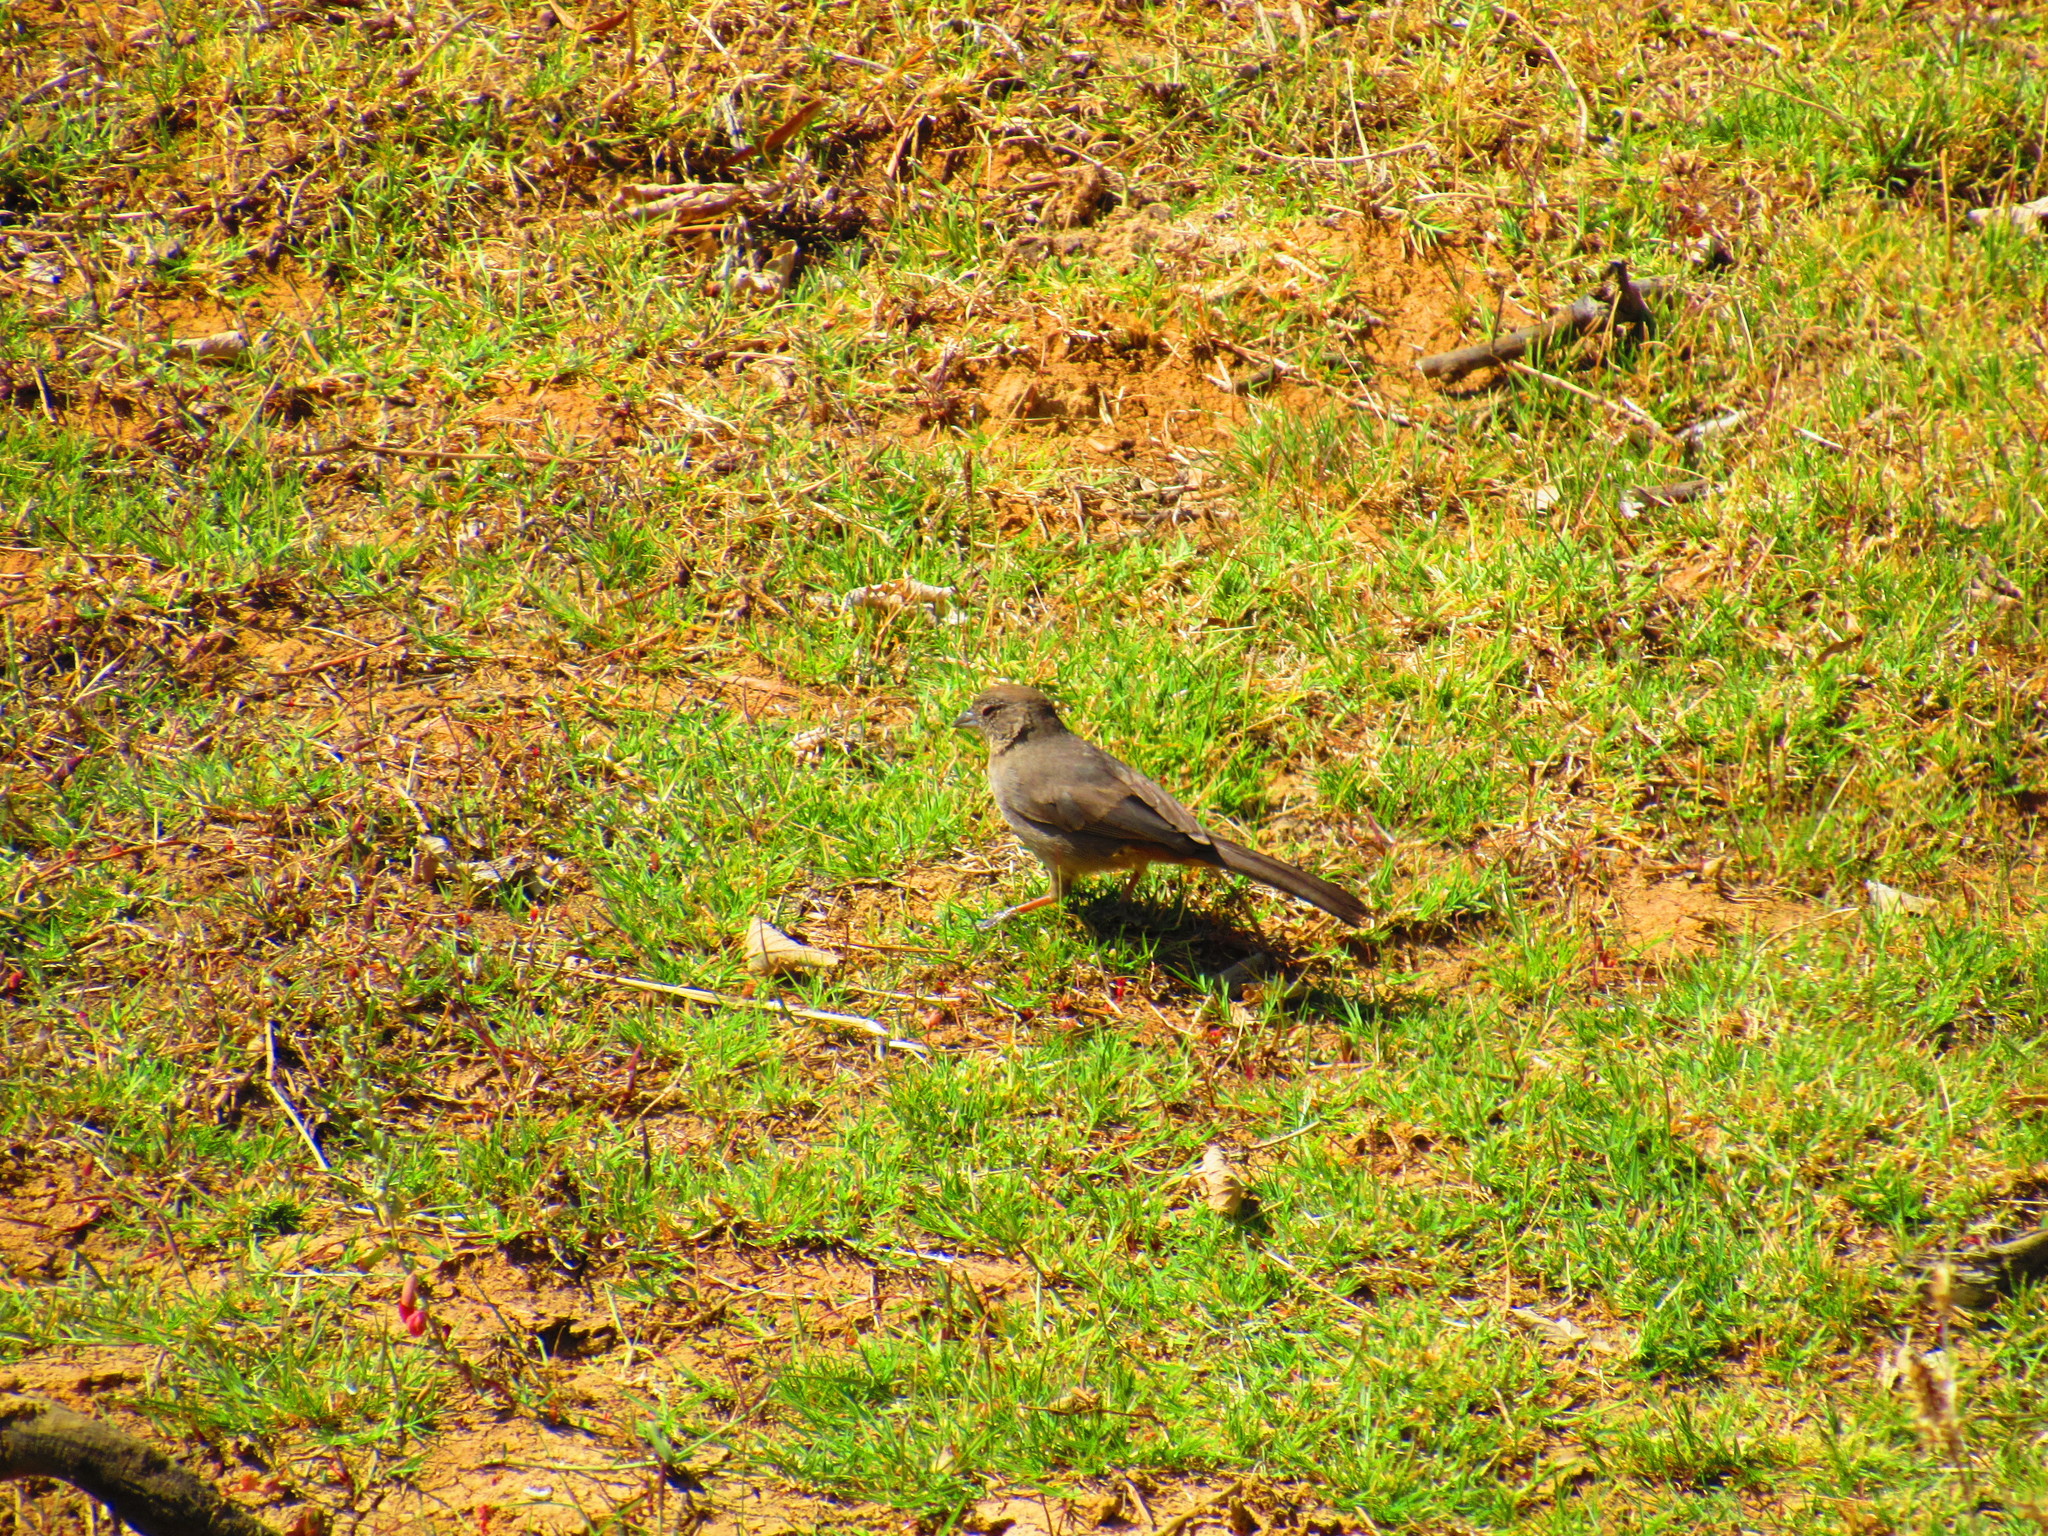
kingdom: Animalia
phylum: Chordata
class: Aves
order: Passeriformes
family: Passerellidae
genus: Melozone
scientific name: Melozone fusca
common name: Canyon towhee
